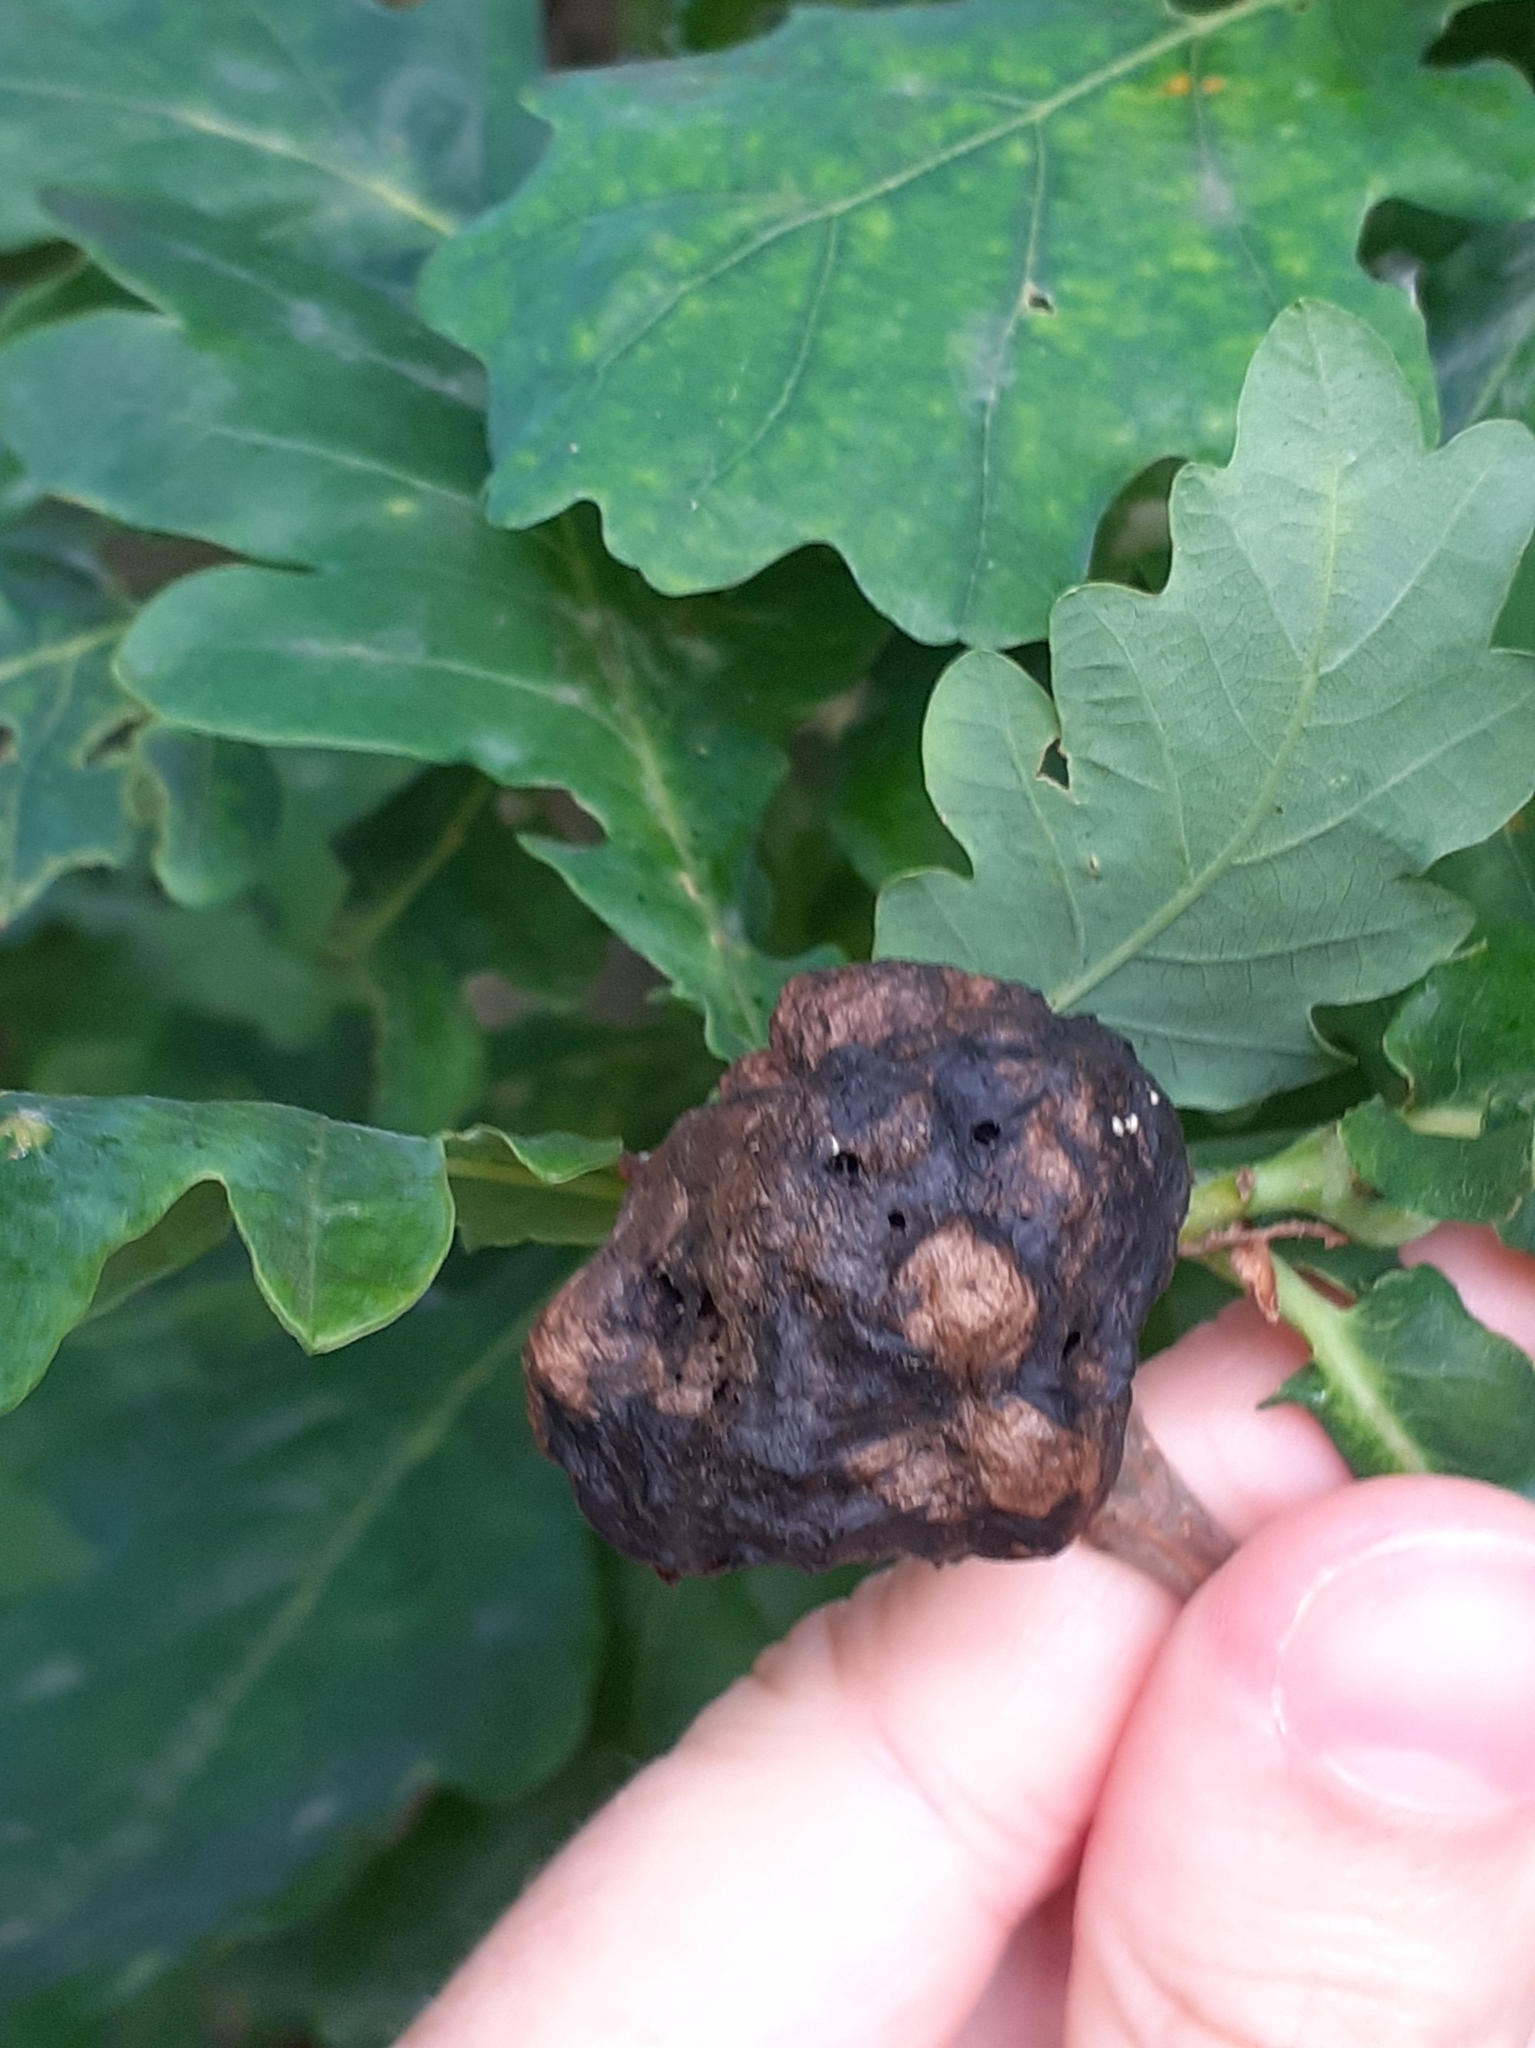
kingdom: Animalia
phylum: Arthropoda
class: Insecta
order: Hymenoptera
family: Cynipidae
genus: Biorhiza
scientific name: Biorhiza pallida
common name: Oak apple
